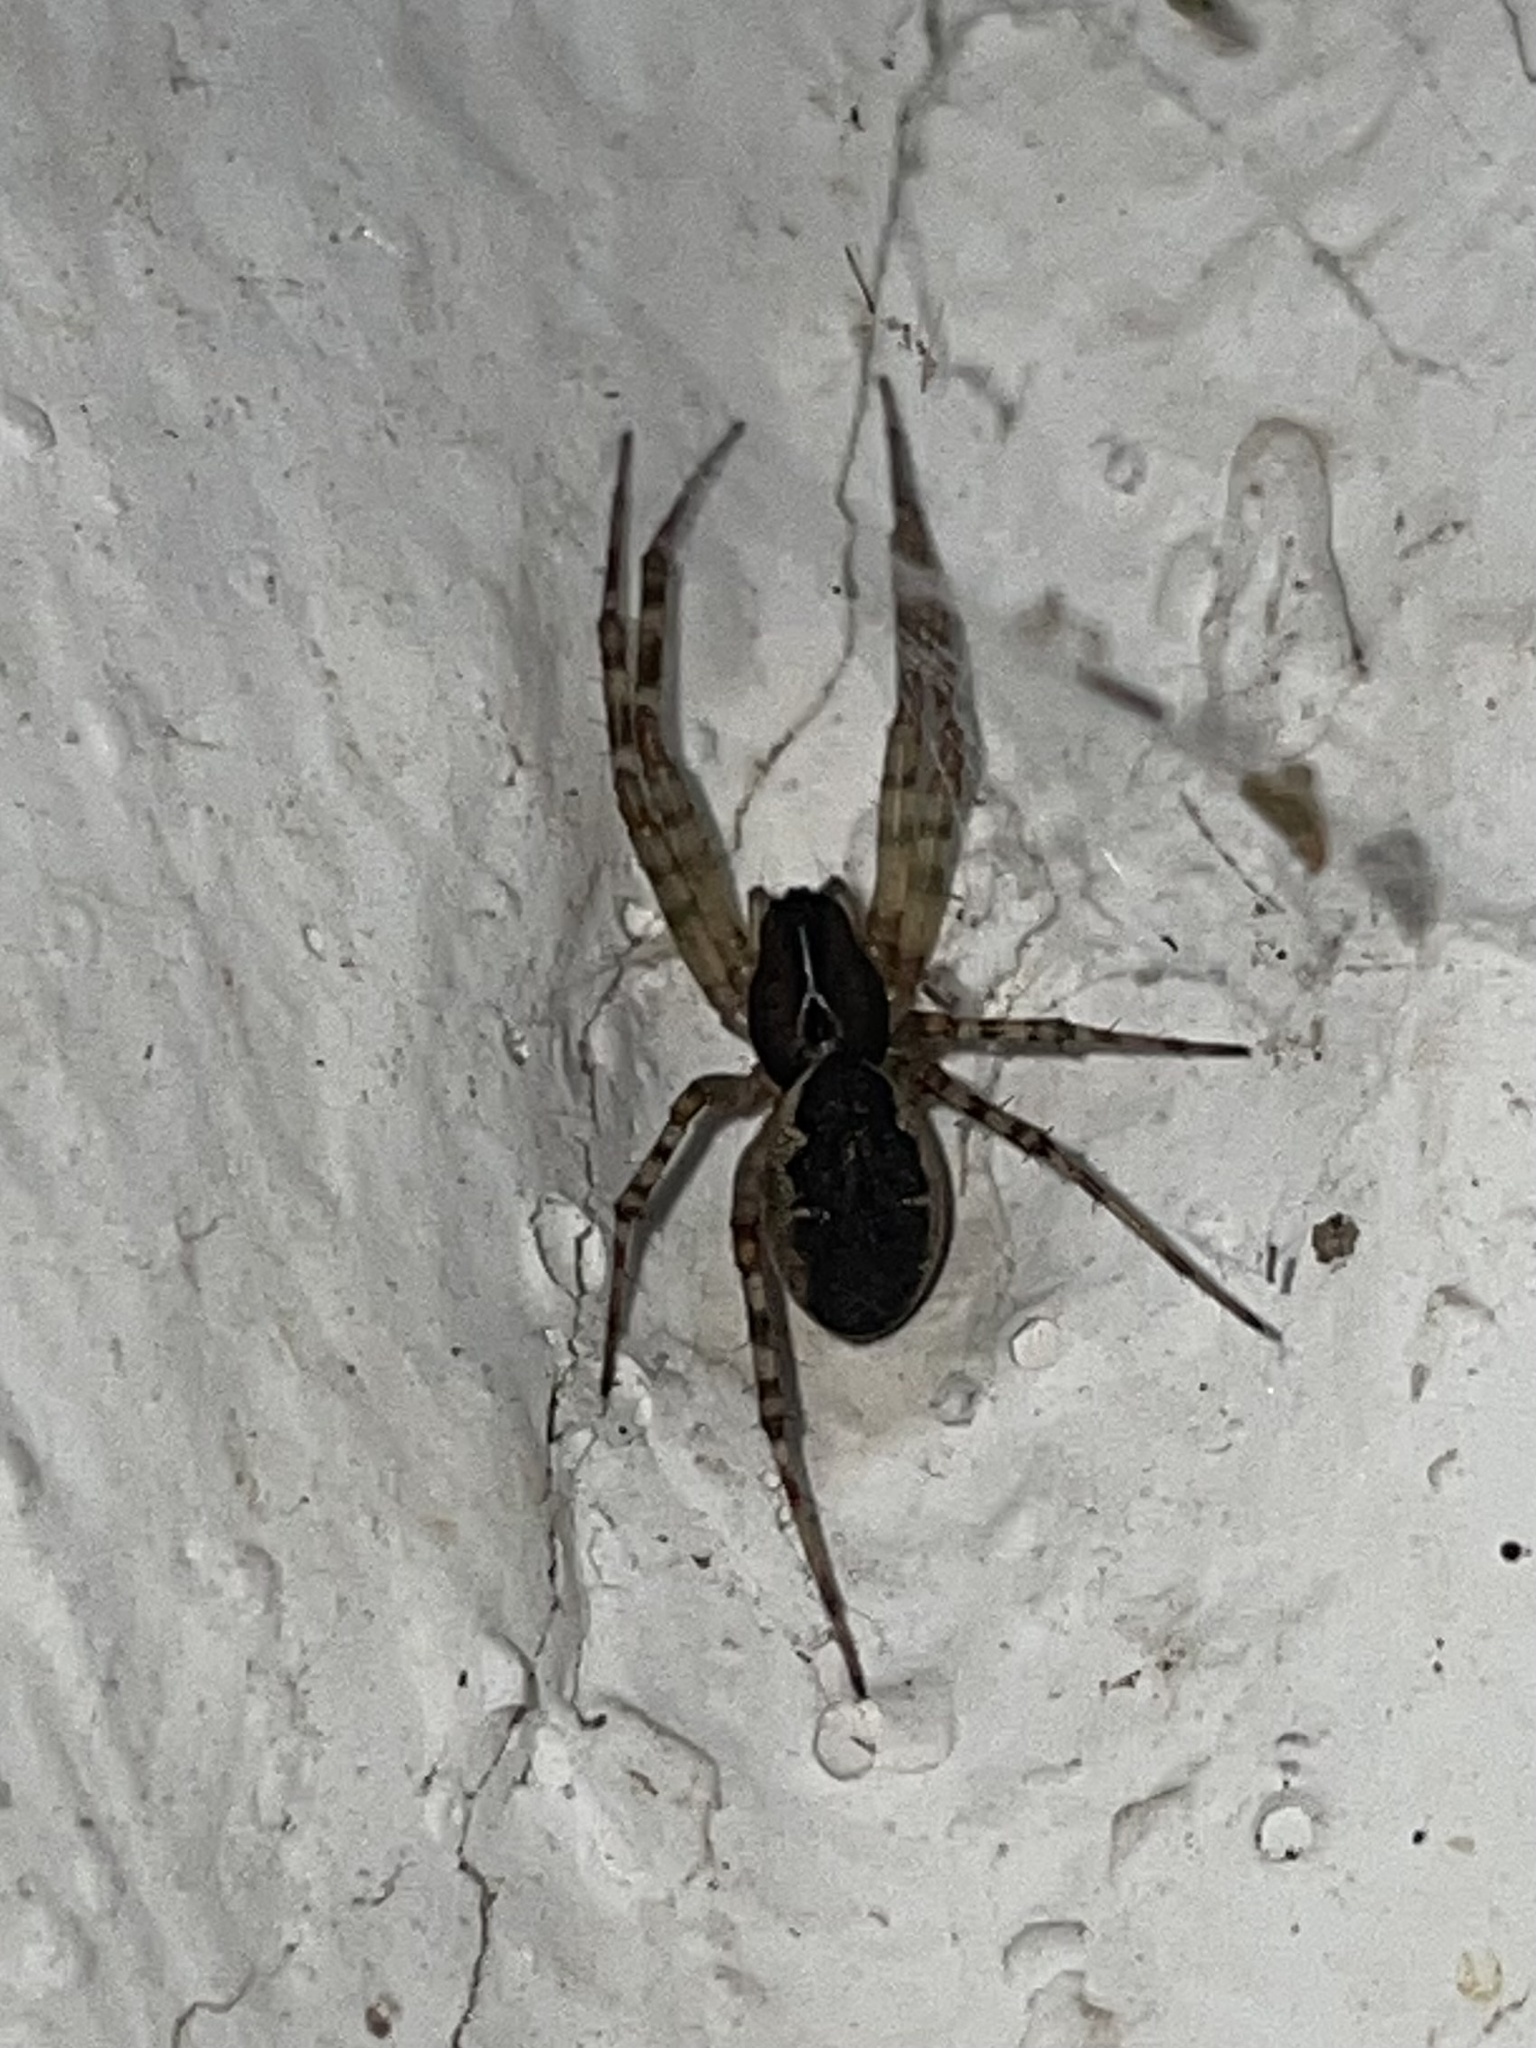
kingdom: Animalia
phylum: Arthropoda
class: Arachnida
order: Araneae
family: Linyphiidae
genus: Neriene
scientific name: Neriene montana
